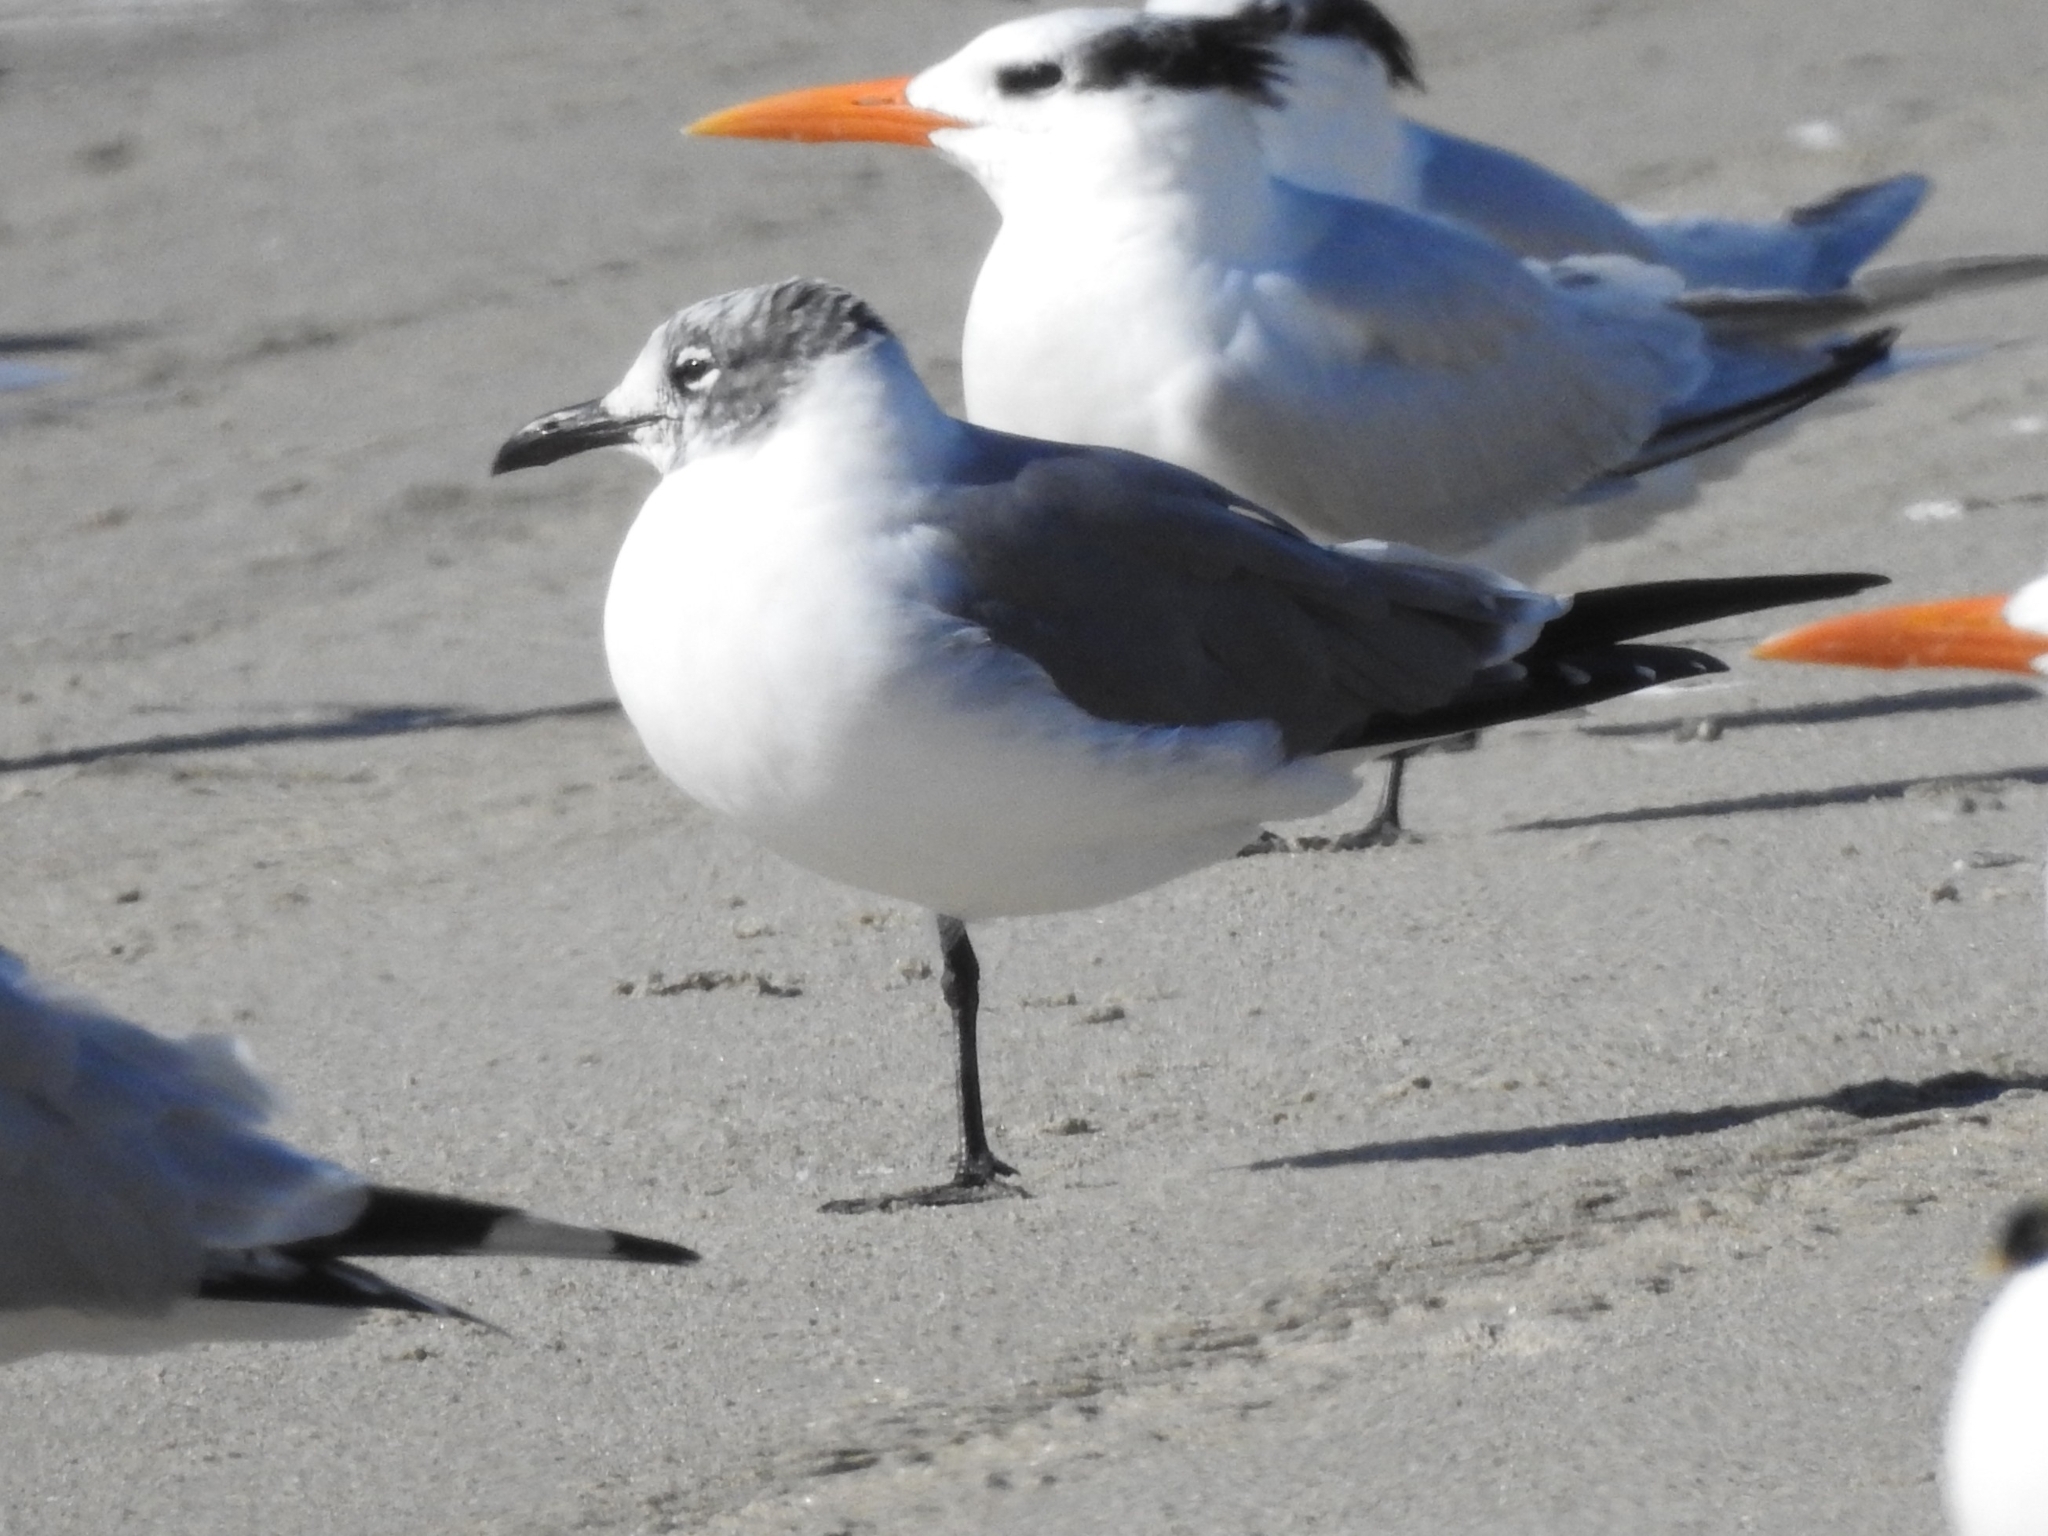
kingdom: Animalia
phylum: Chordata
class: Aves
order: Charadriiformes
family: Laridae
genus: Leucophaeus
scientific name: Leucophaeus atricilla
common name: Laughing gull
